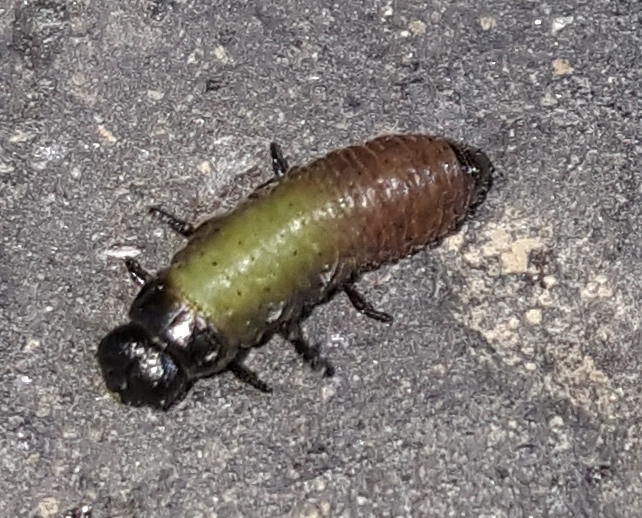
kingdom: Animalia
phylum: Arthropoda
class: Insecta
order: Coleoptera
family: Chrysomelidae
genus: Trachymela
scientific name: Trachymela sloanei
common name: Australian tortoise beetle
